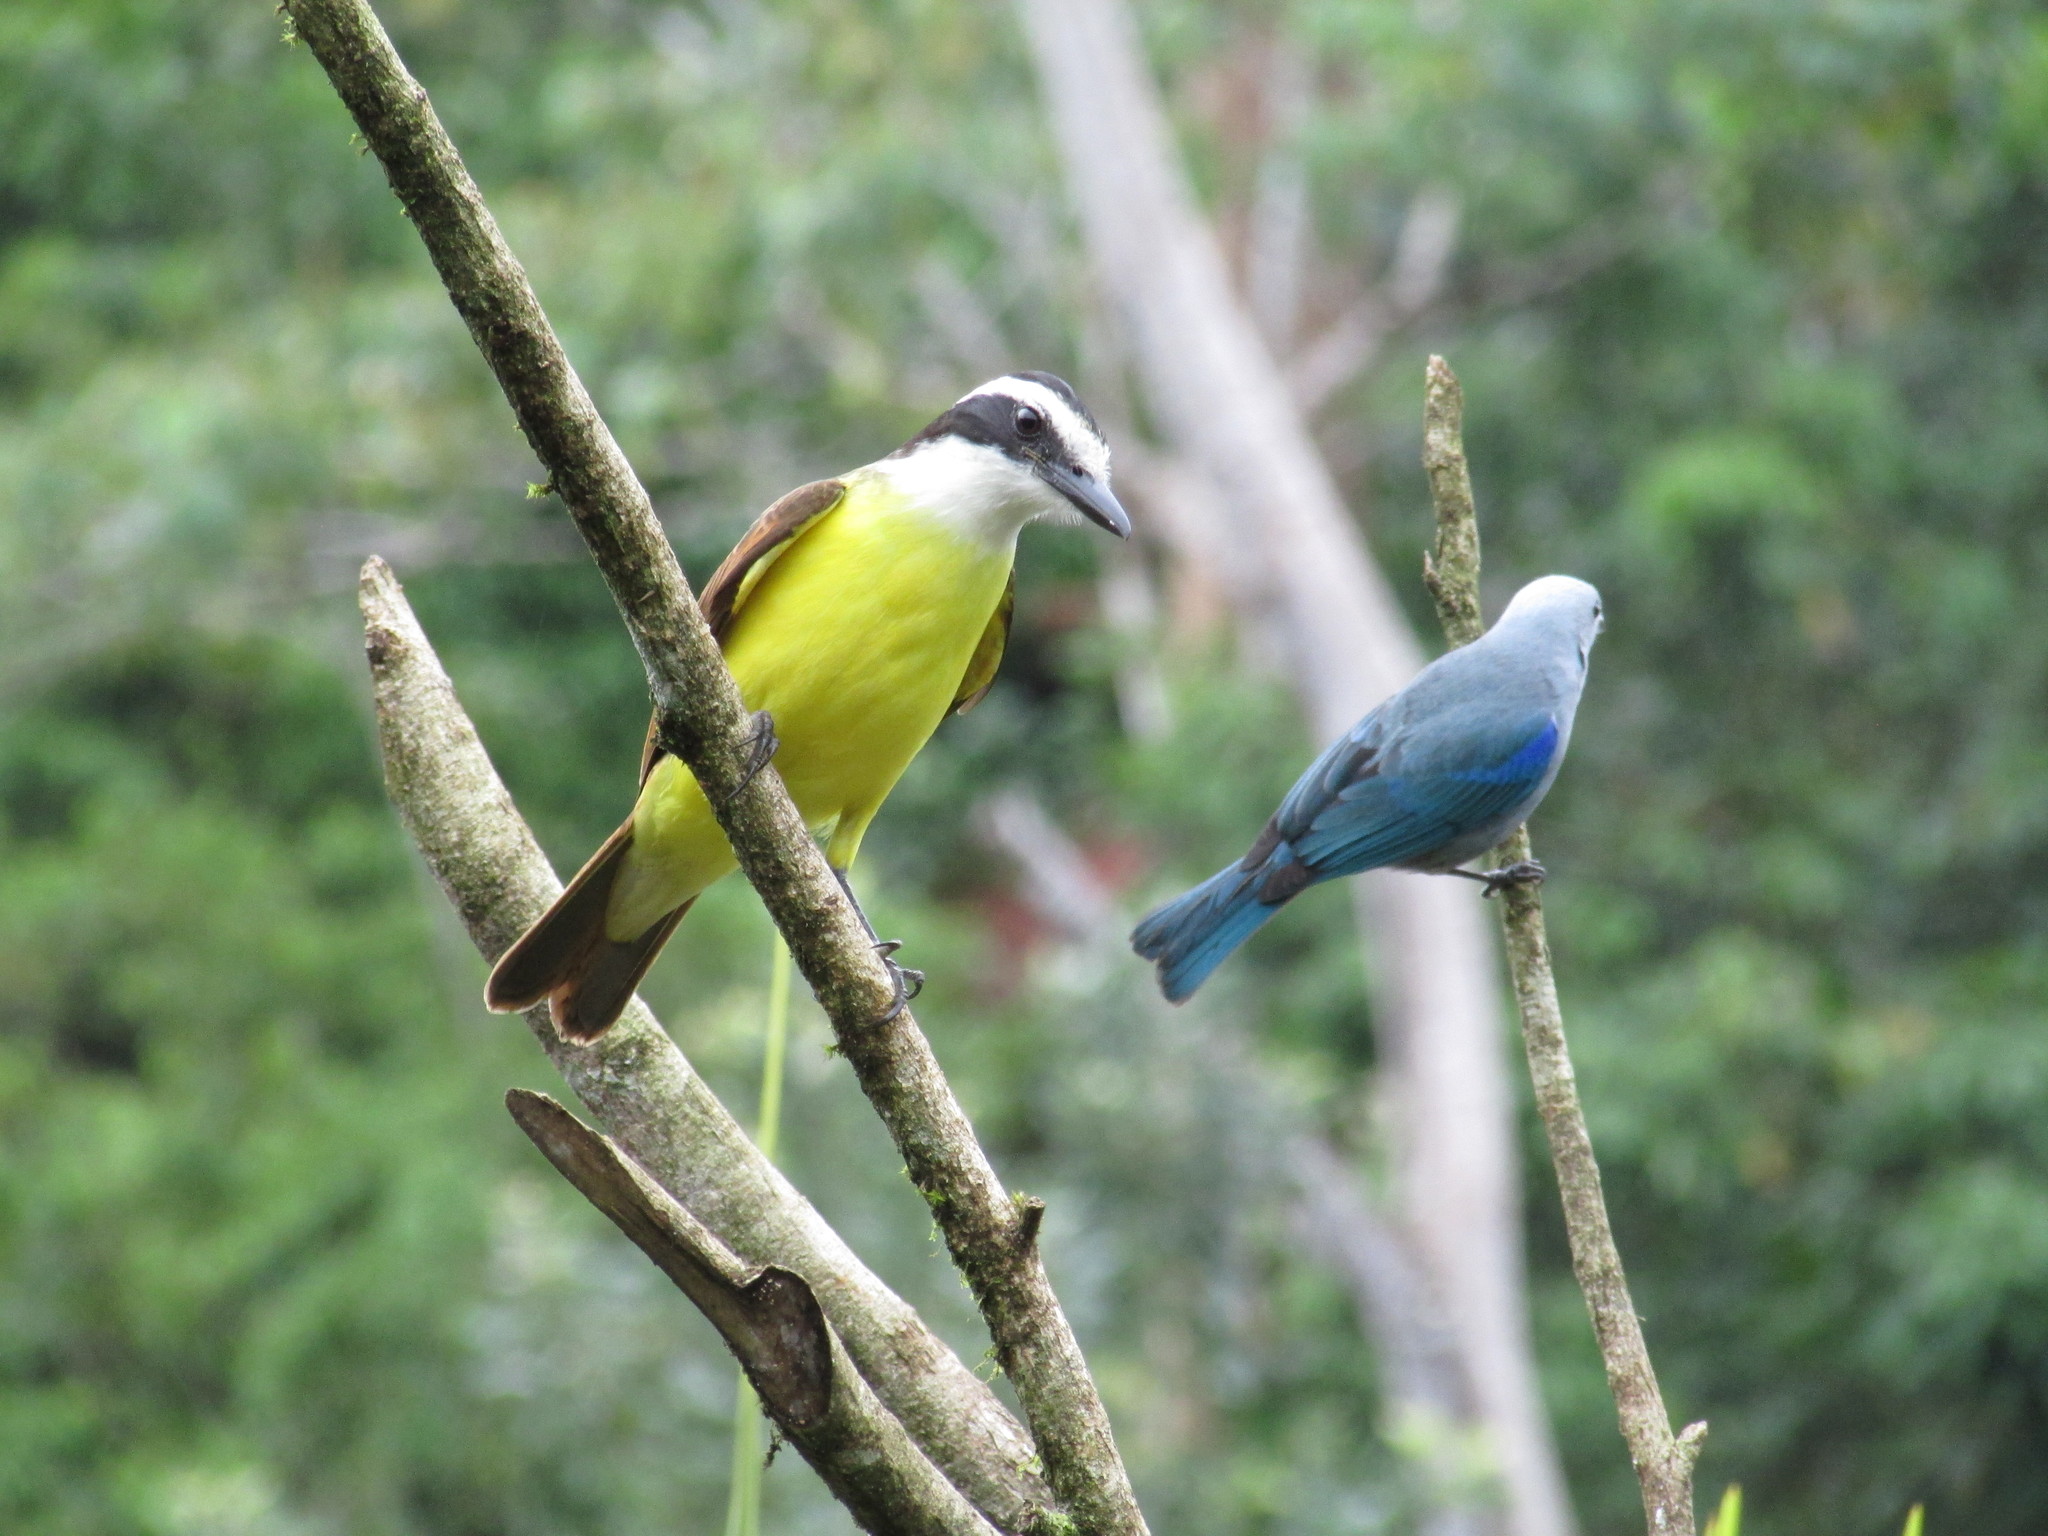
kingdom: Animalia
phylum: Chordata
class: Aves
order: Passeriformes
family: Tyrannidae
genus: Pitangus
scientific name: Pitangus sulphuratus
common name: Great kiskadee
